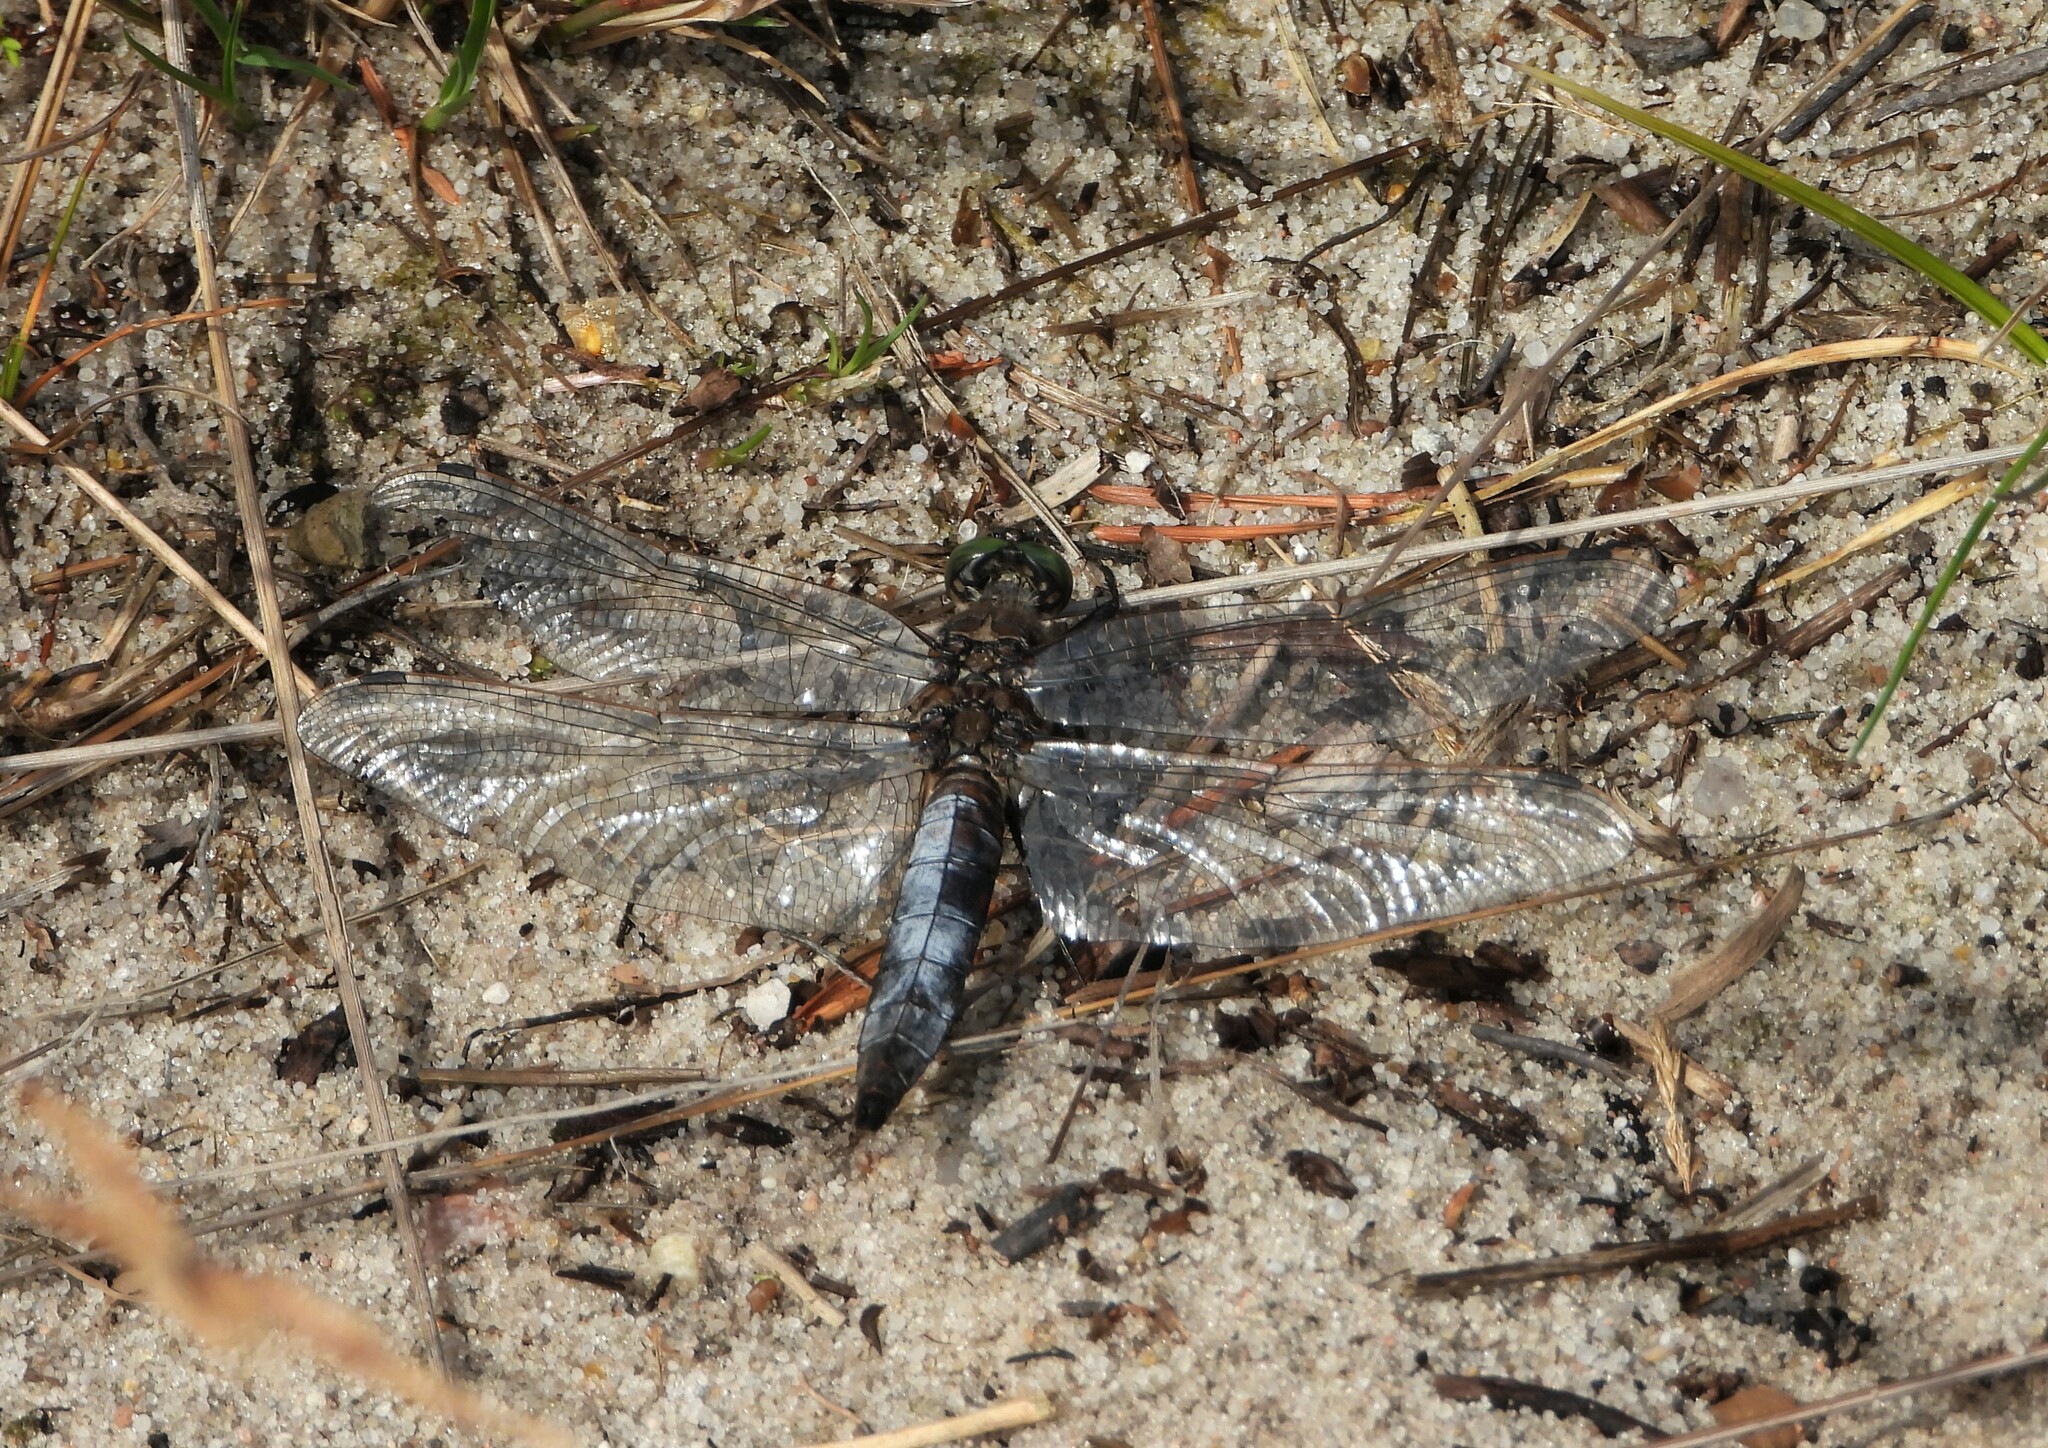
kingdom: Animalia
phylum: Arthropoda
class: Insecta
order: Odonata
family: Libellulidae
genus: Orthetrum
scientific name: Orthetrum cancellatum
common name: Black-tailed skimmer
